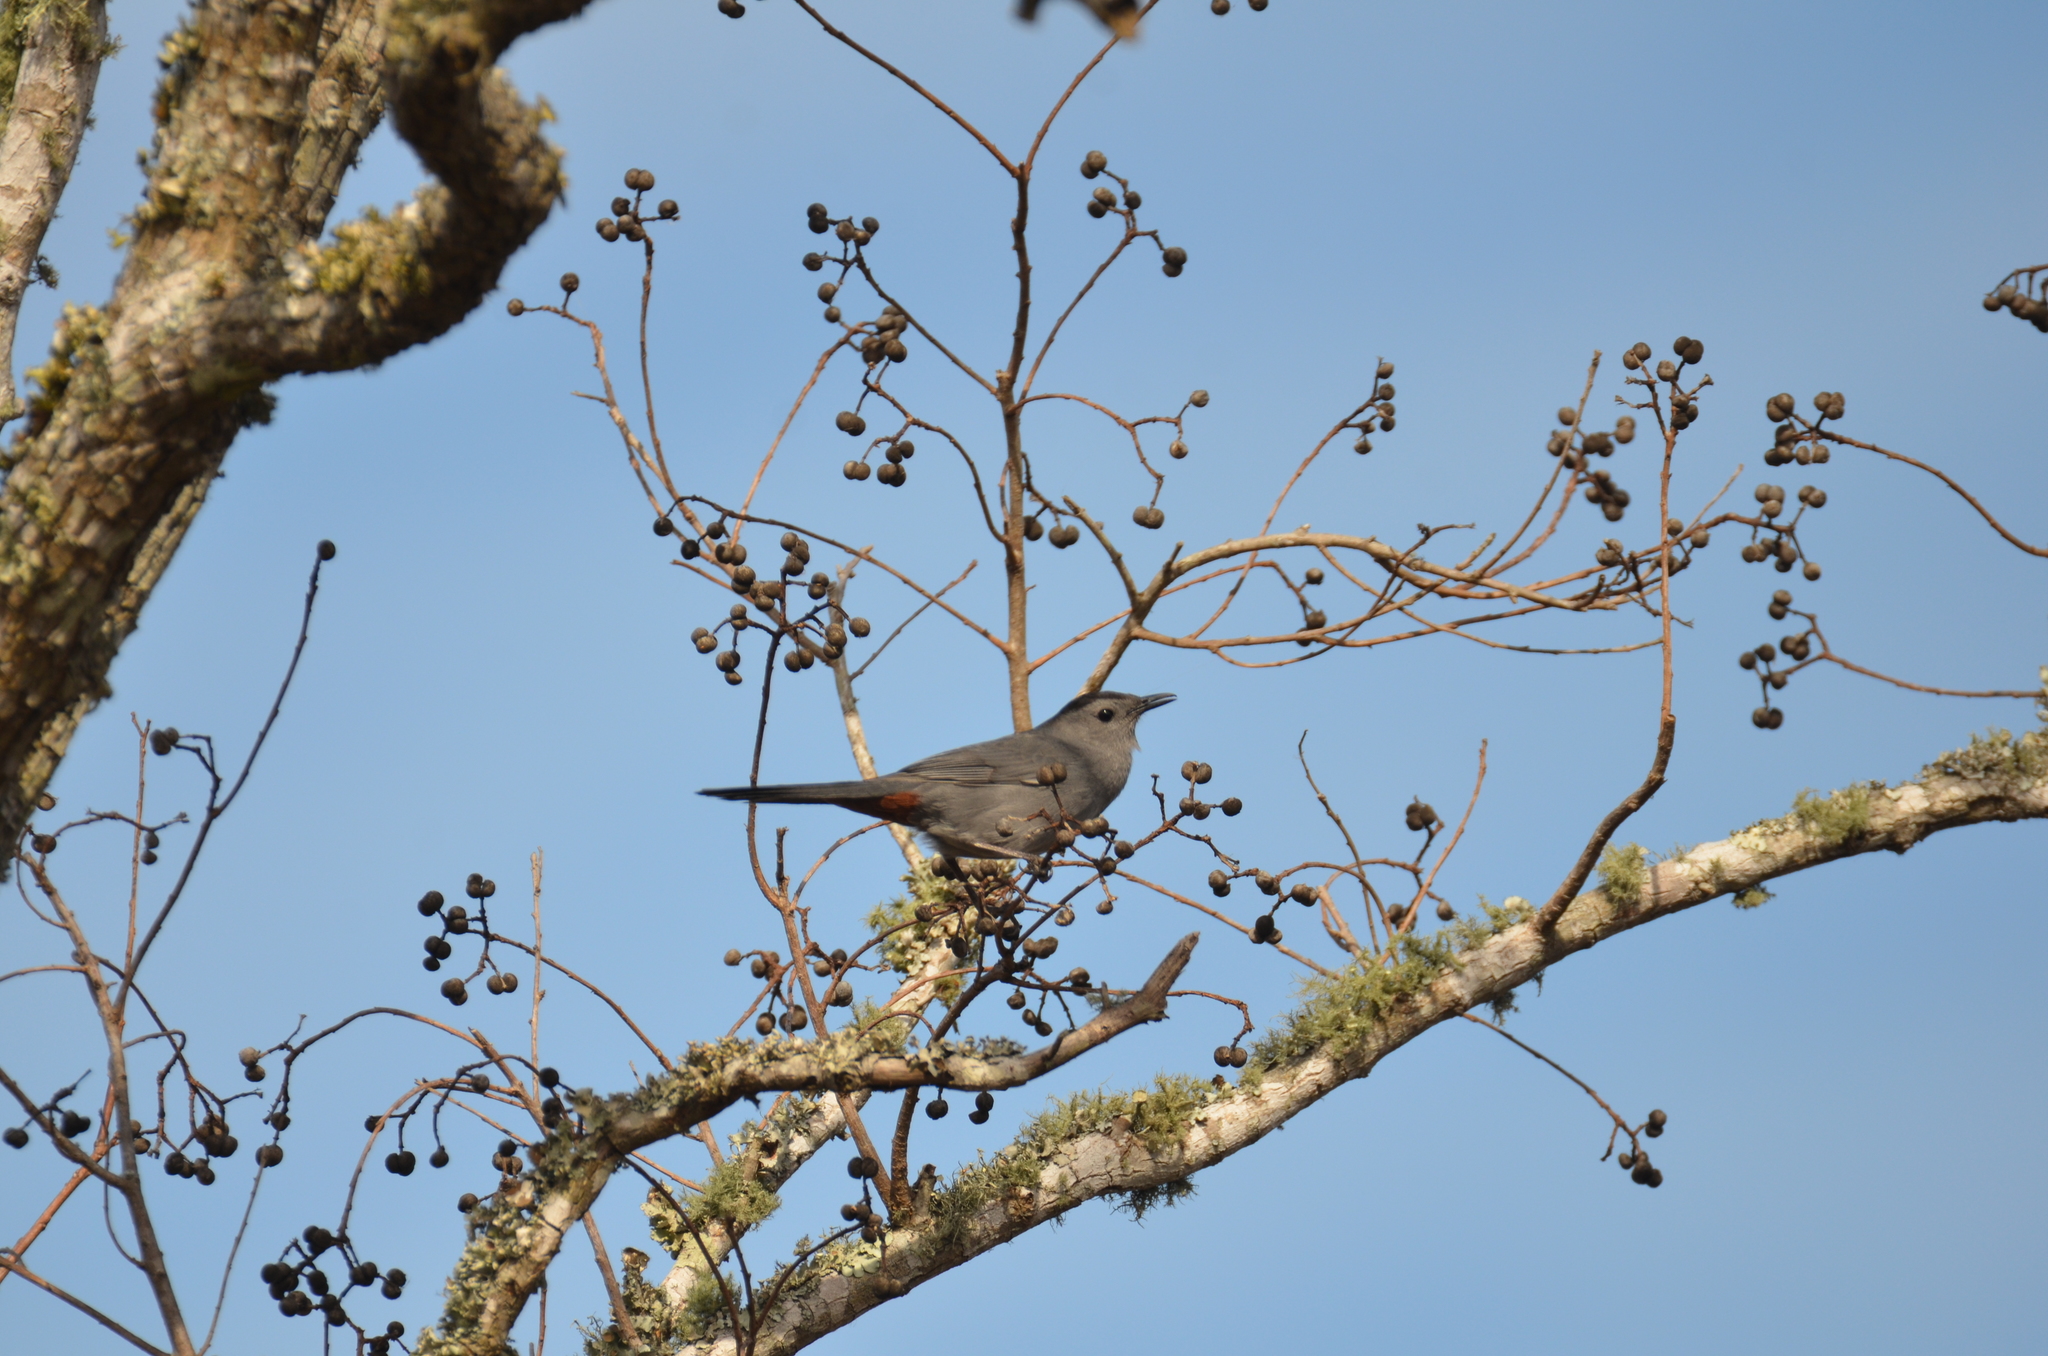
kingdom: Animalia
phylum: Chordata
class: Aves
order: Passeriformes
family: Mimidae
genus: Dumetella
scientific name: Dumetella carolinensis
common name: Gray catbird
